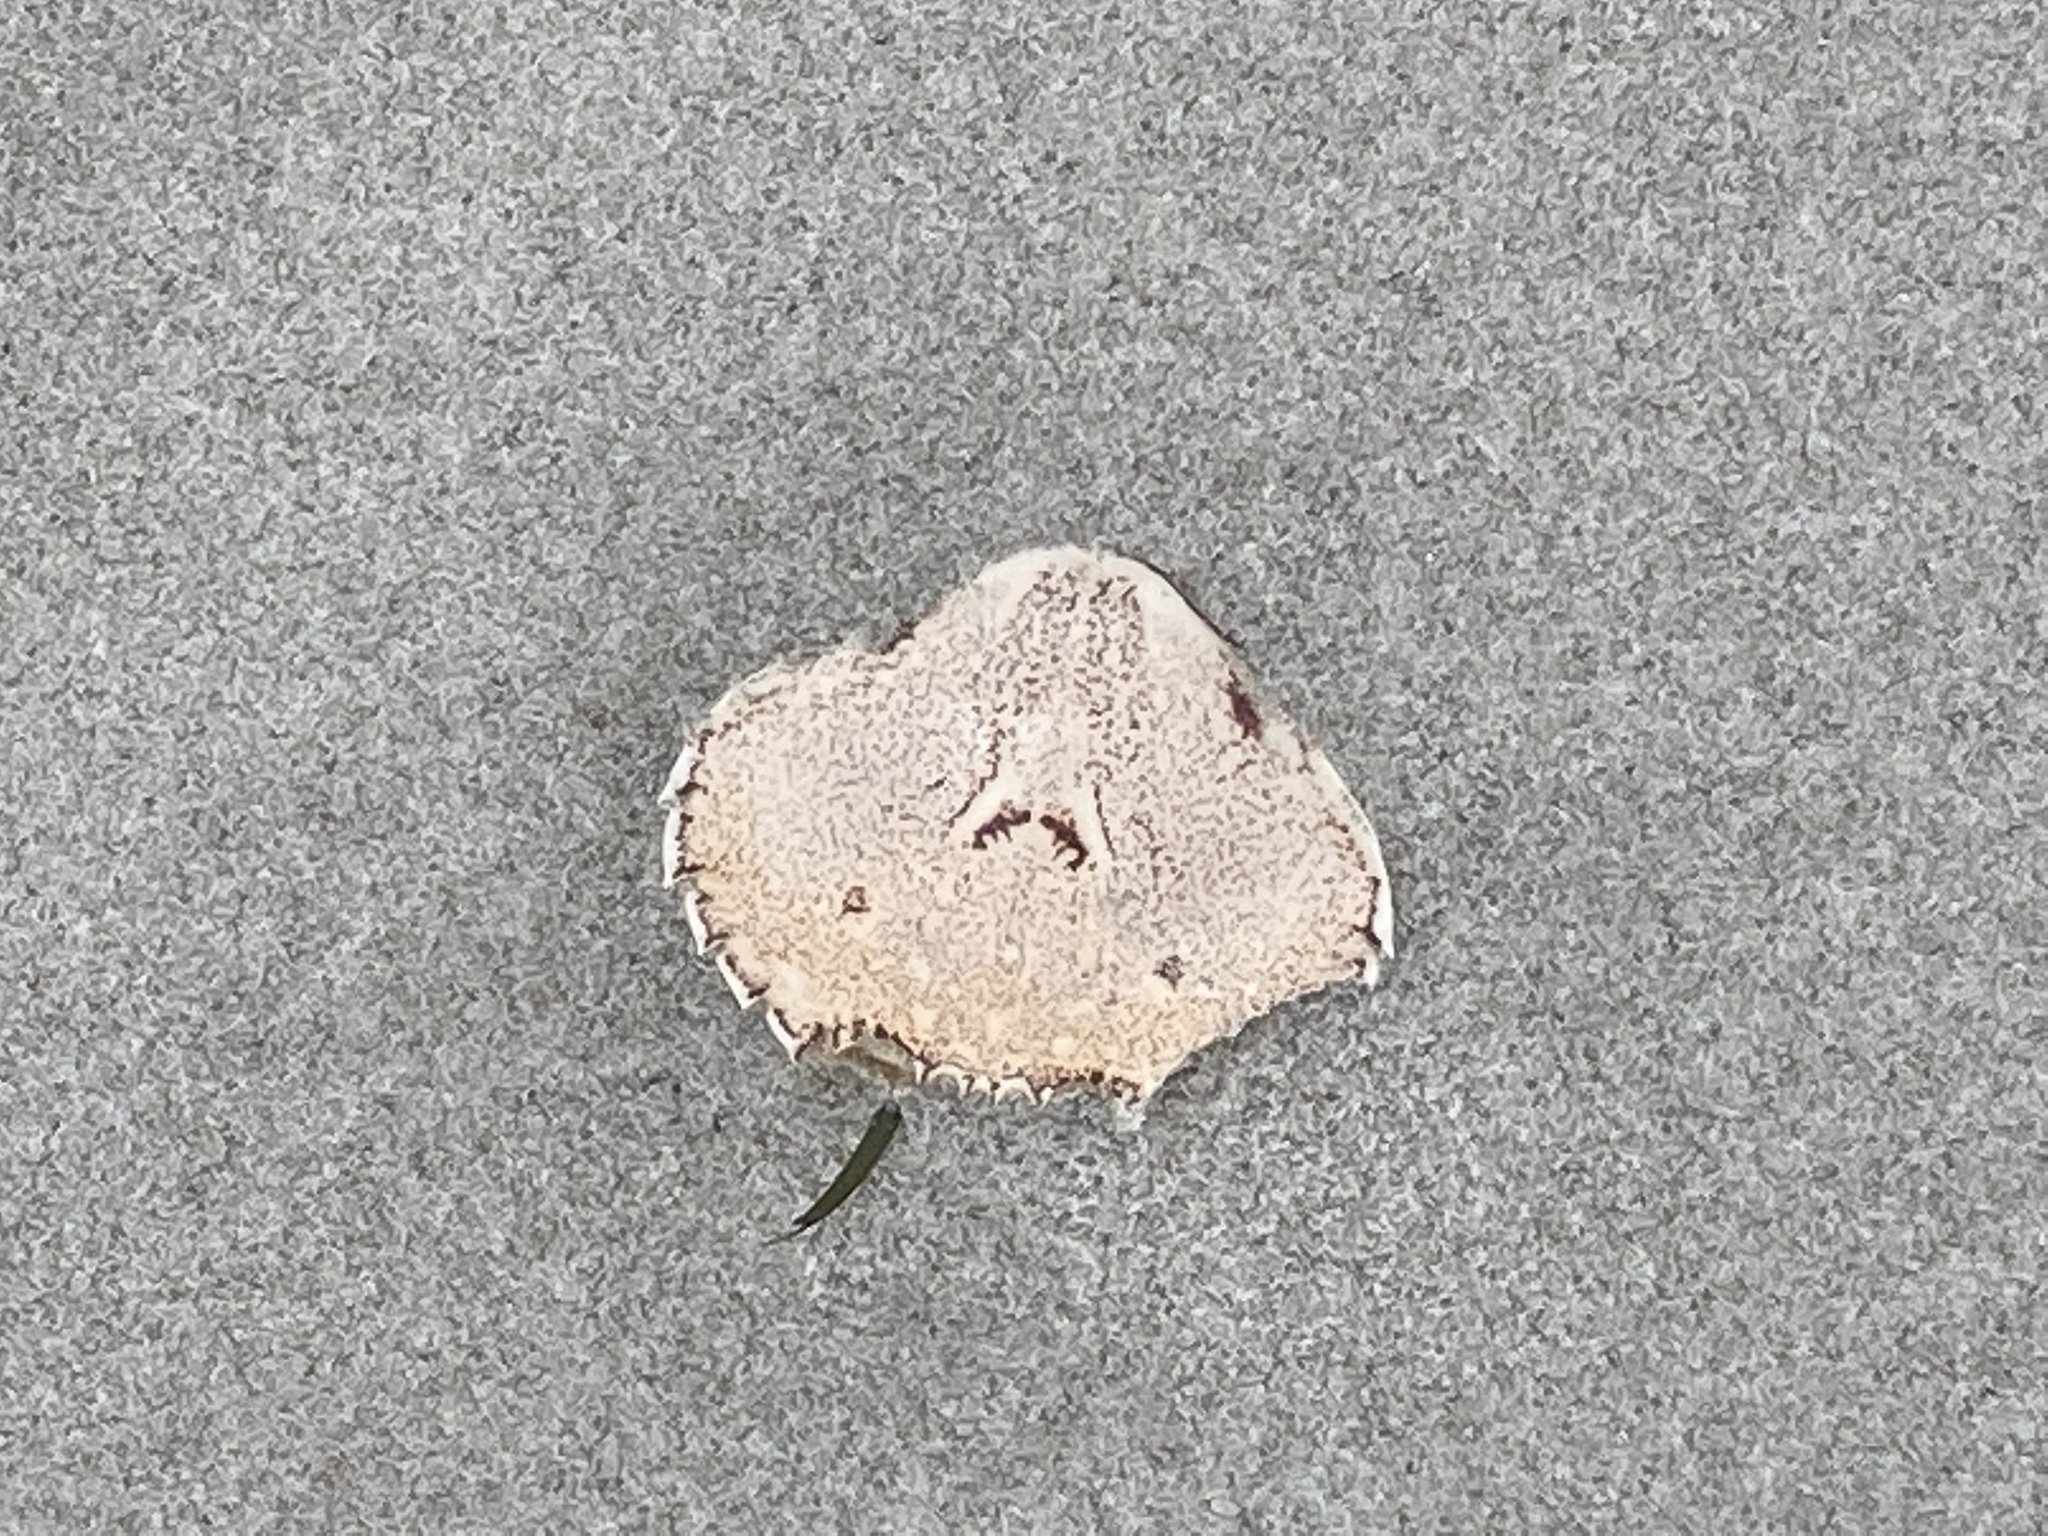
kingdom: Animalia
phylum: Arthropoda
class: Malacostraca
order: Decapoda
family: Ovalipidae
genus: Ovalipes
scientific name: Ovalipes catharus
